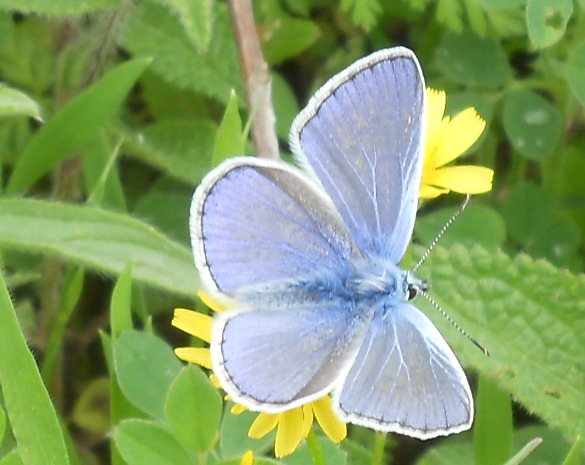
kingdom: Animalia
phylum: Arthropoda
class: Insecta
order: Lepidoptera
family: Lycaenidae
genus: Polyommatus
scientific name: Polyommatus icarus
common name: Common blue
